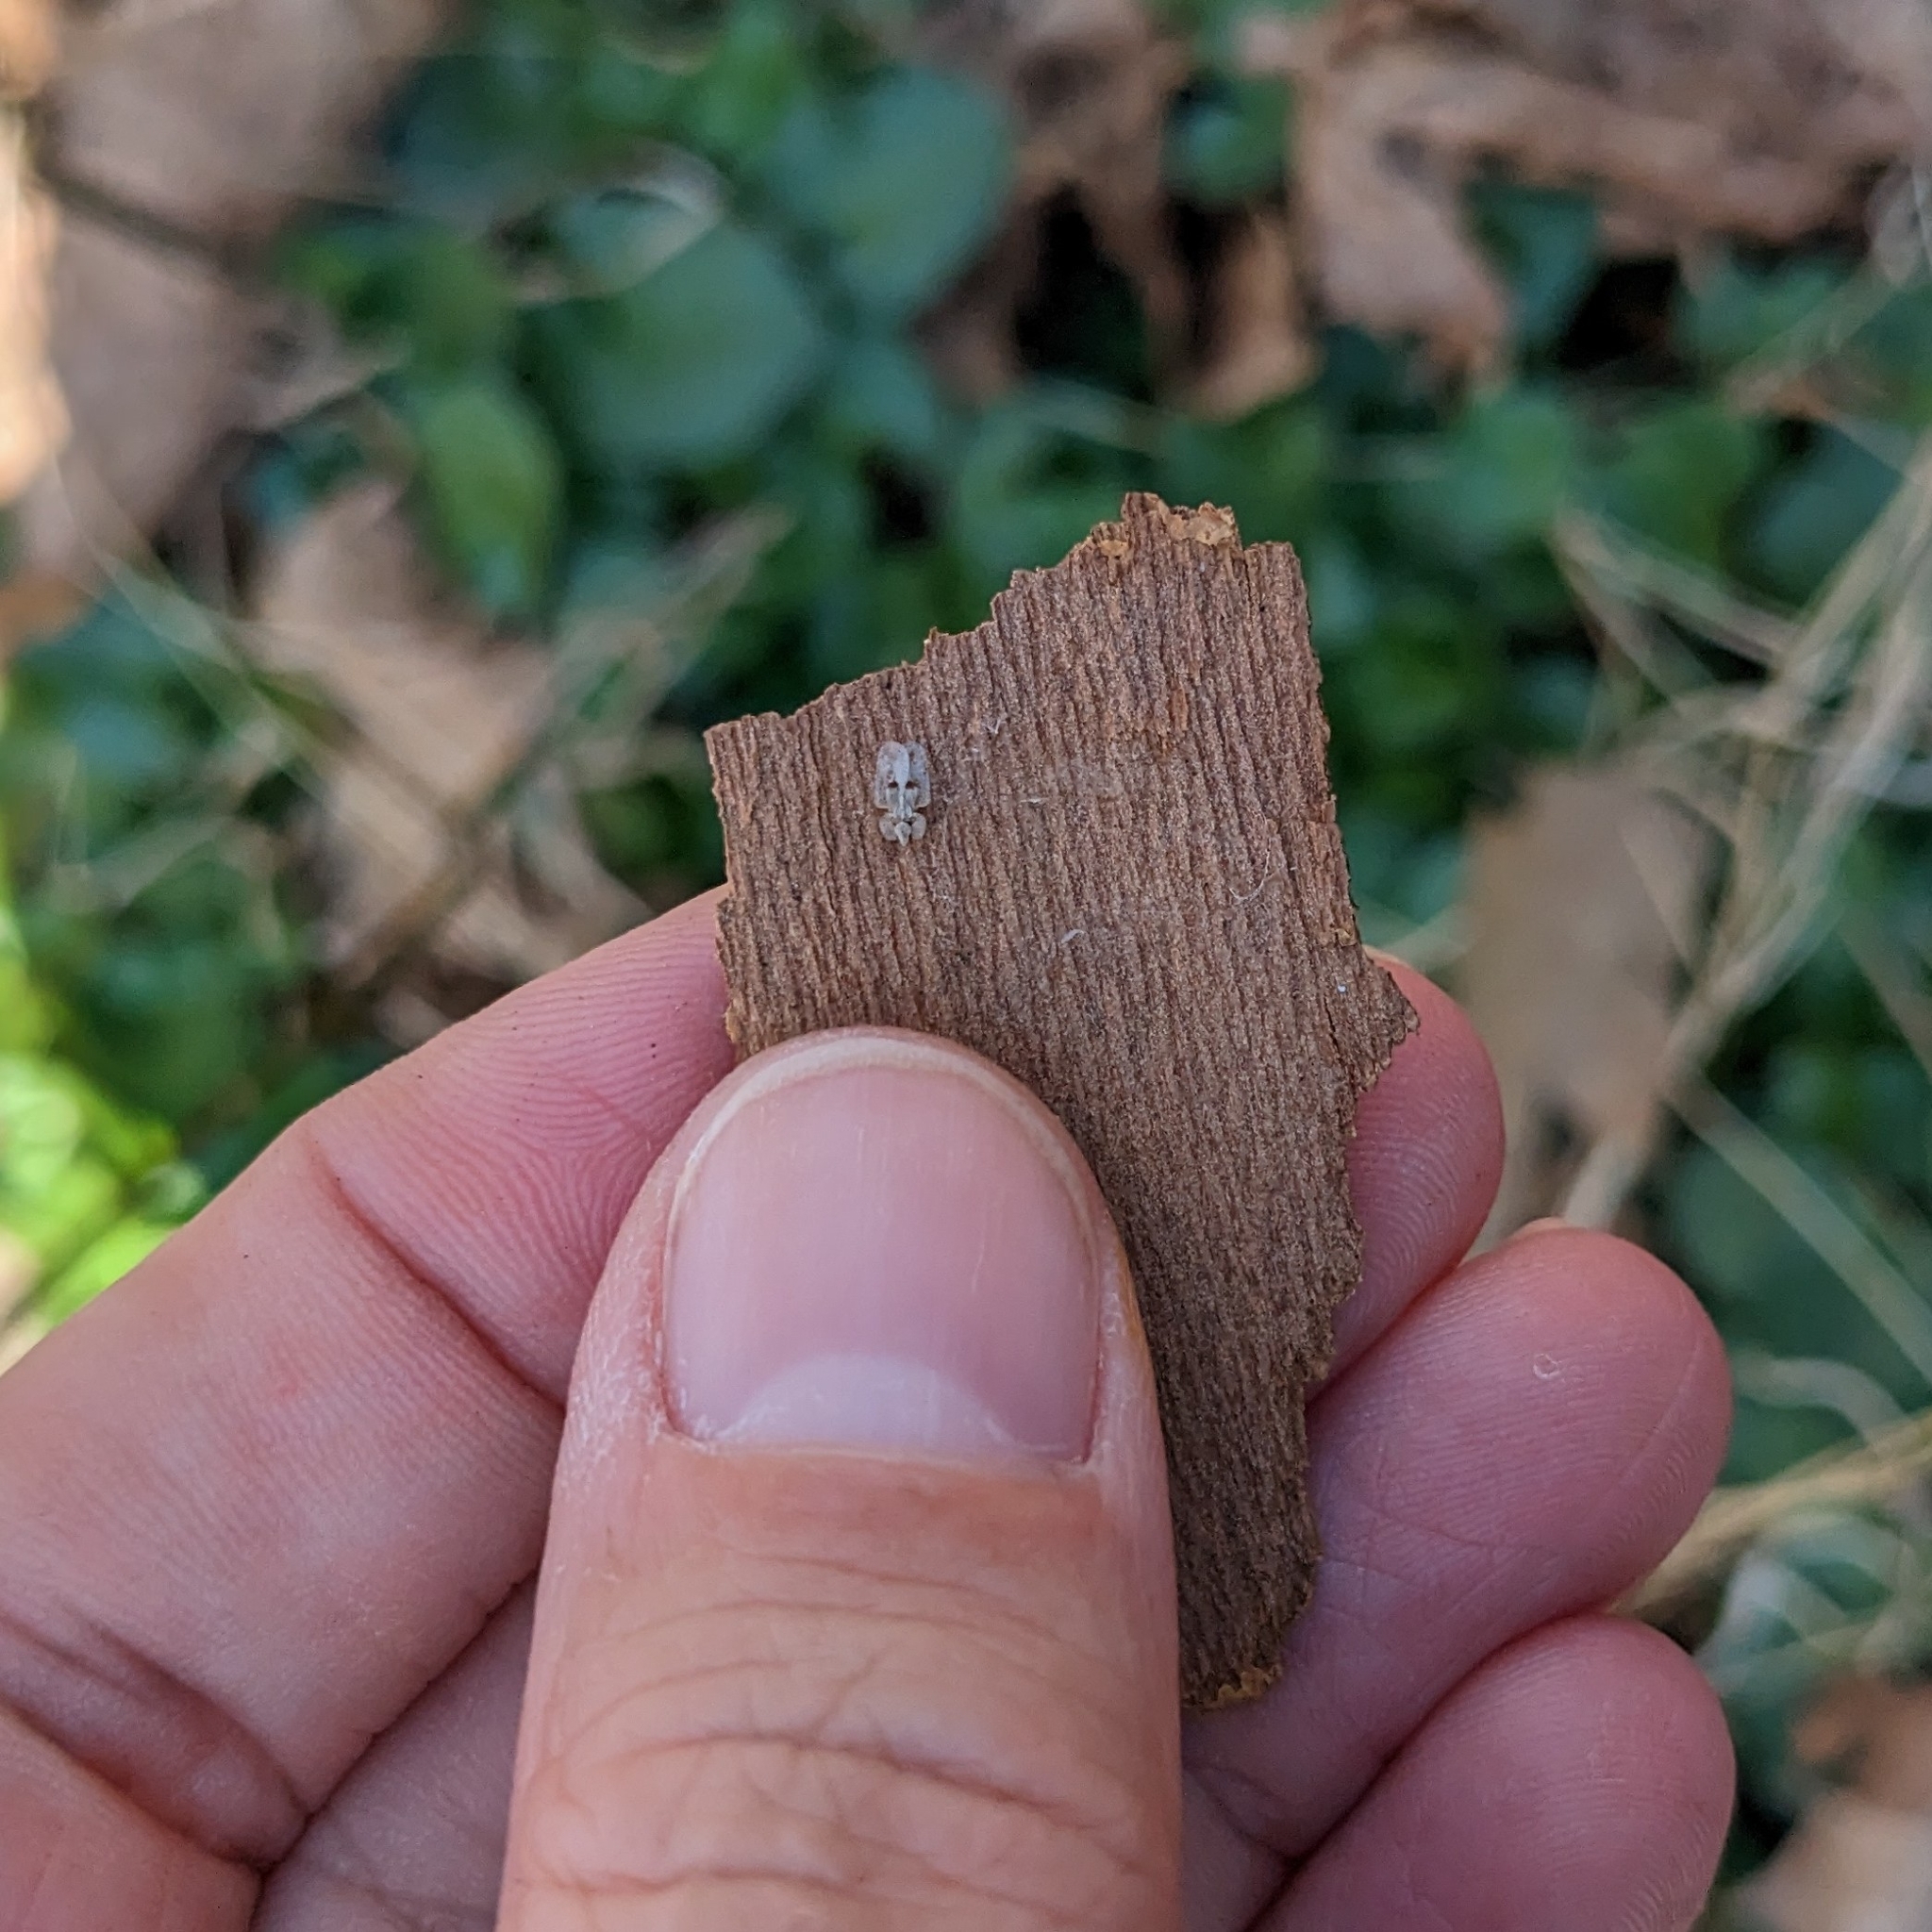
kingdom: Animalia
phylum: Arthropoda
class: Insecta
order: Hemiptera
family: Tingidae
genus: Corythucha
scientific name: Corythucha ciliata
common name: Sycamore lace bug
